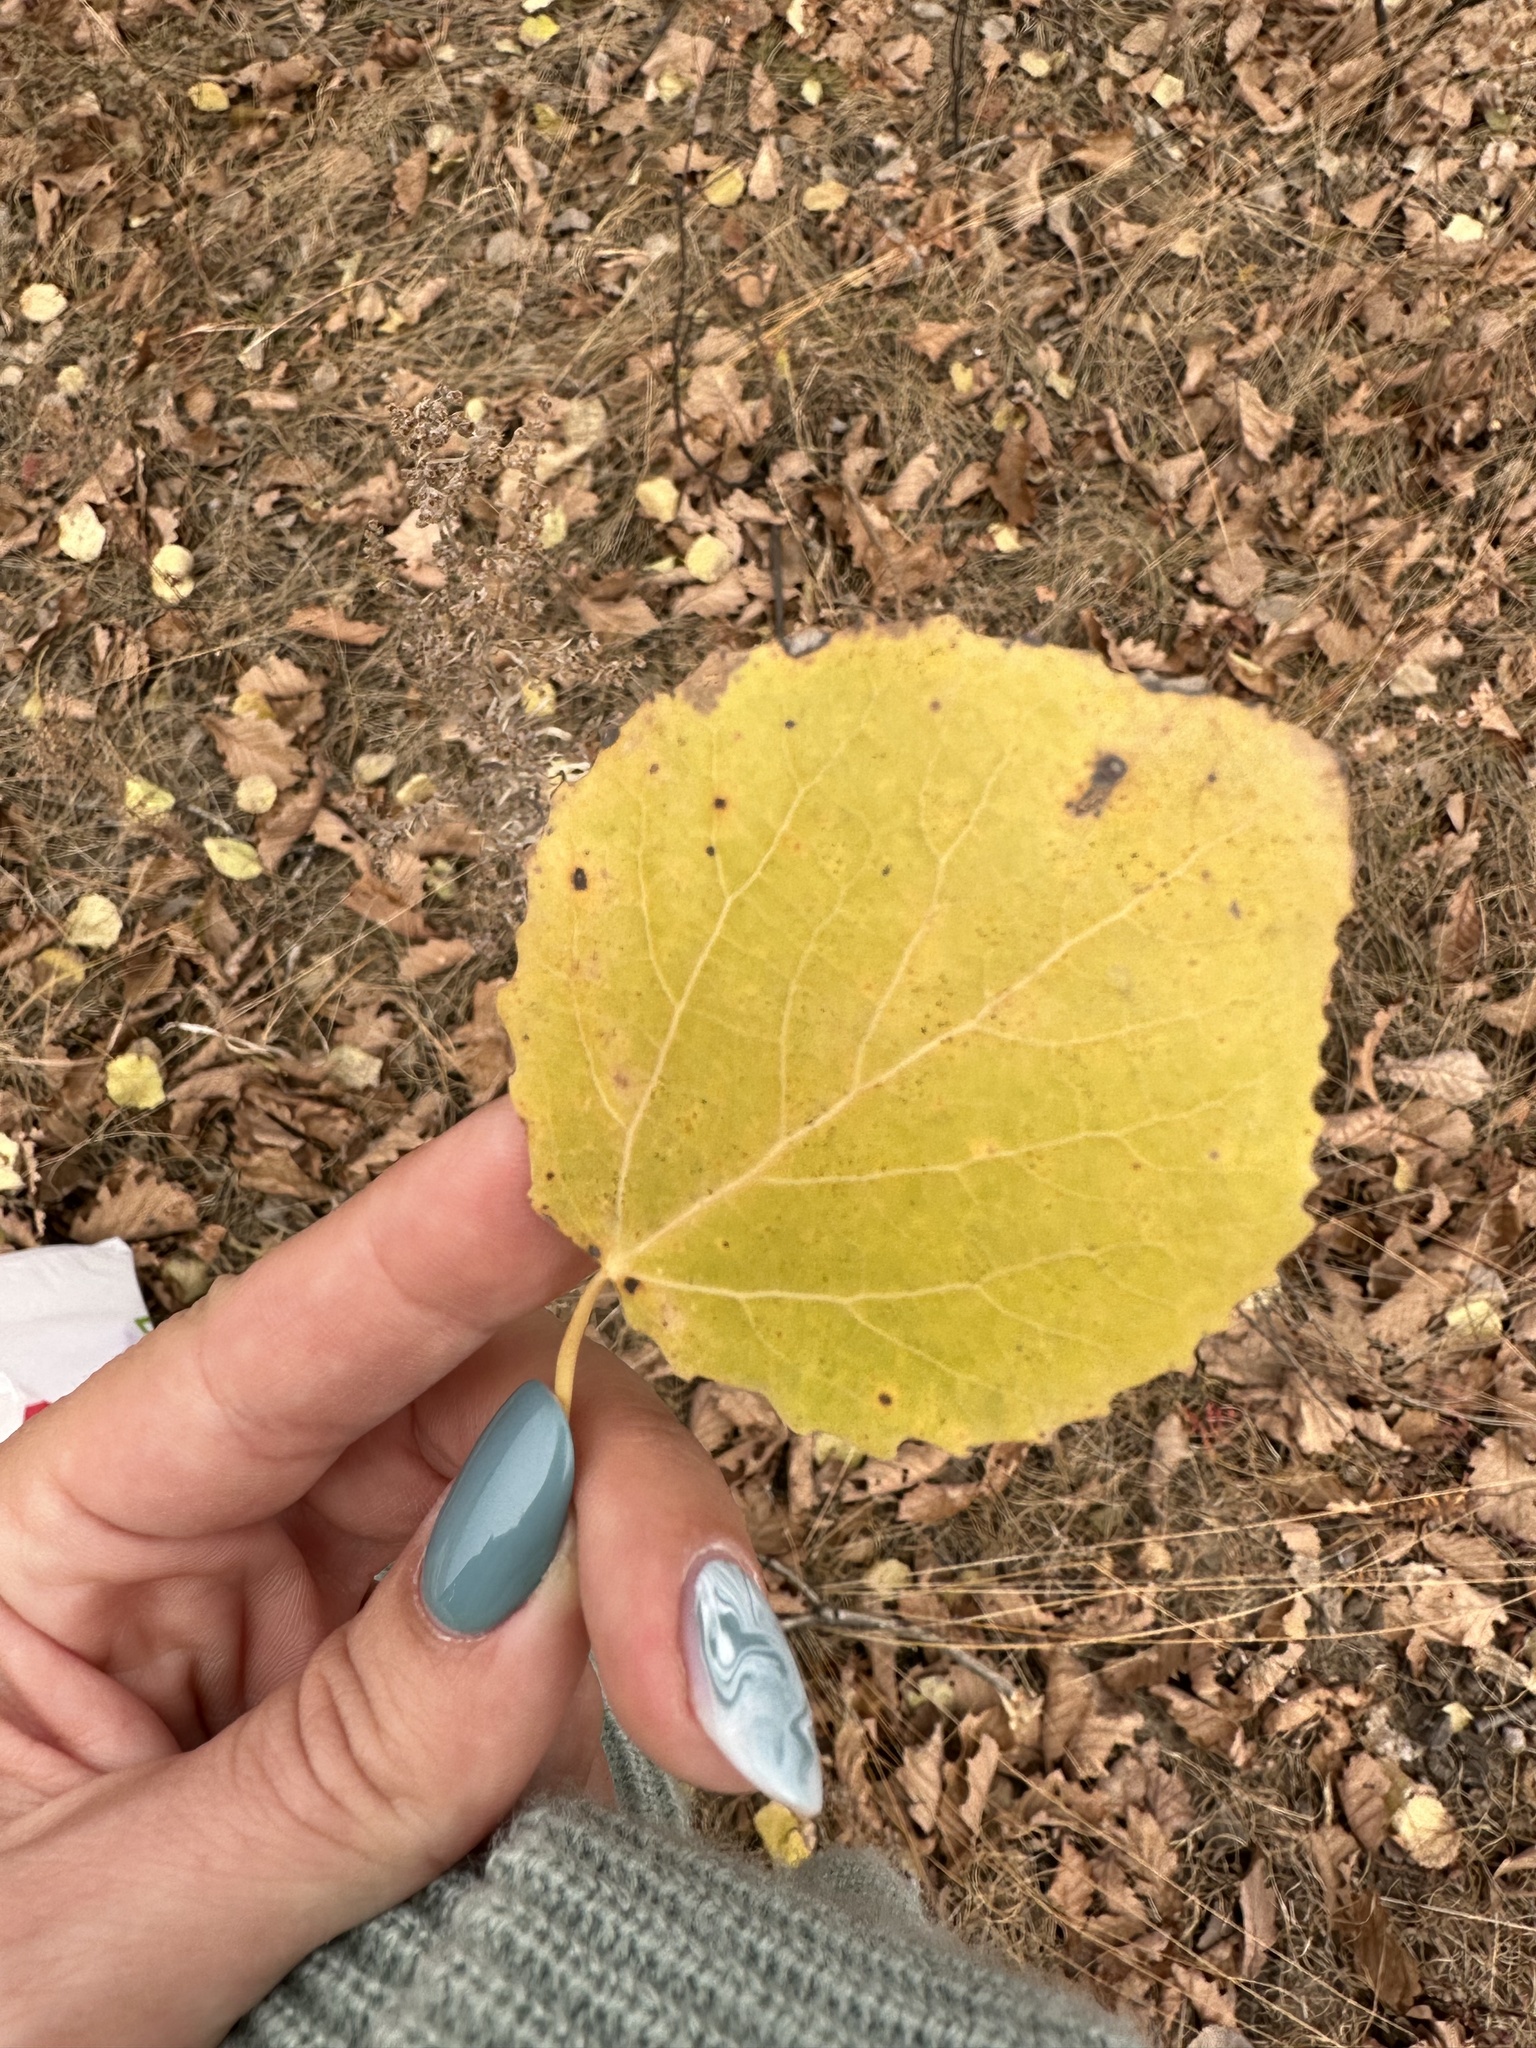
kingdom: Plantae
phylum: Tracheophyta
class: Magnoliopsida
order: Malpighiales
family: Salicaceae
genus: Populus
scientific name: Populus tremula
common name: European aspen
